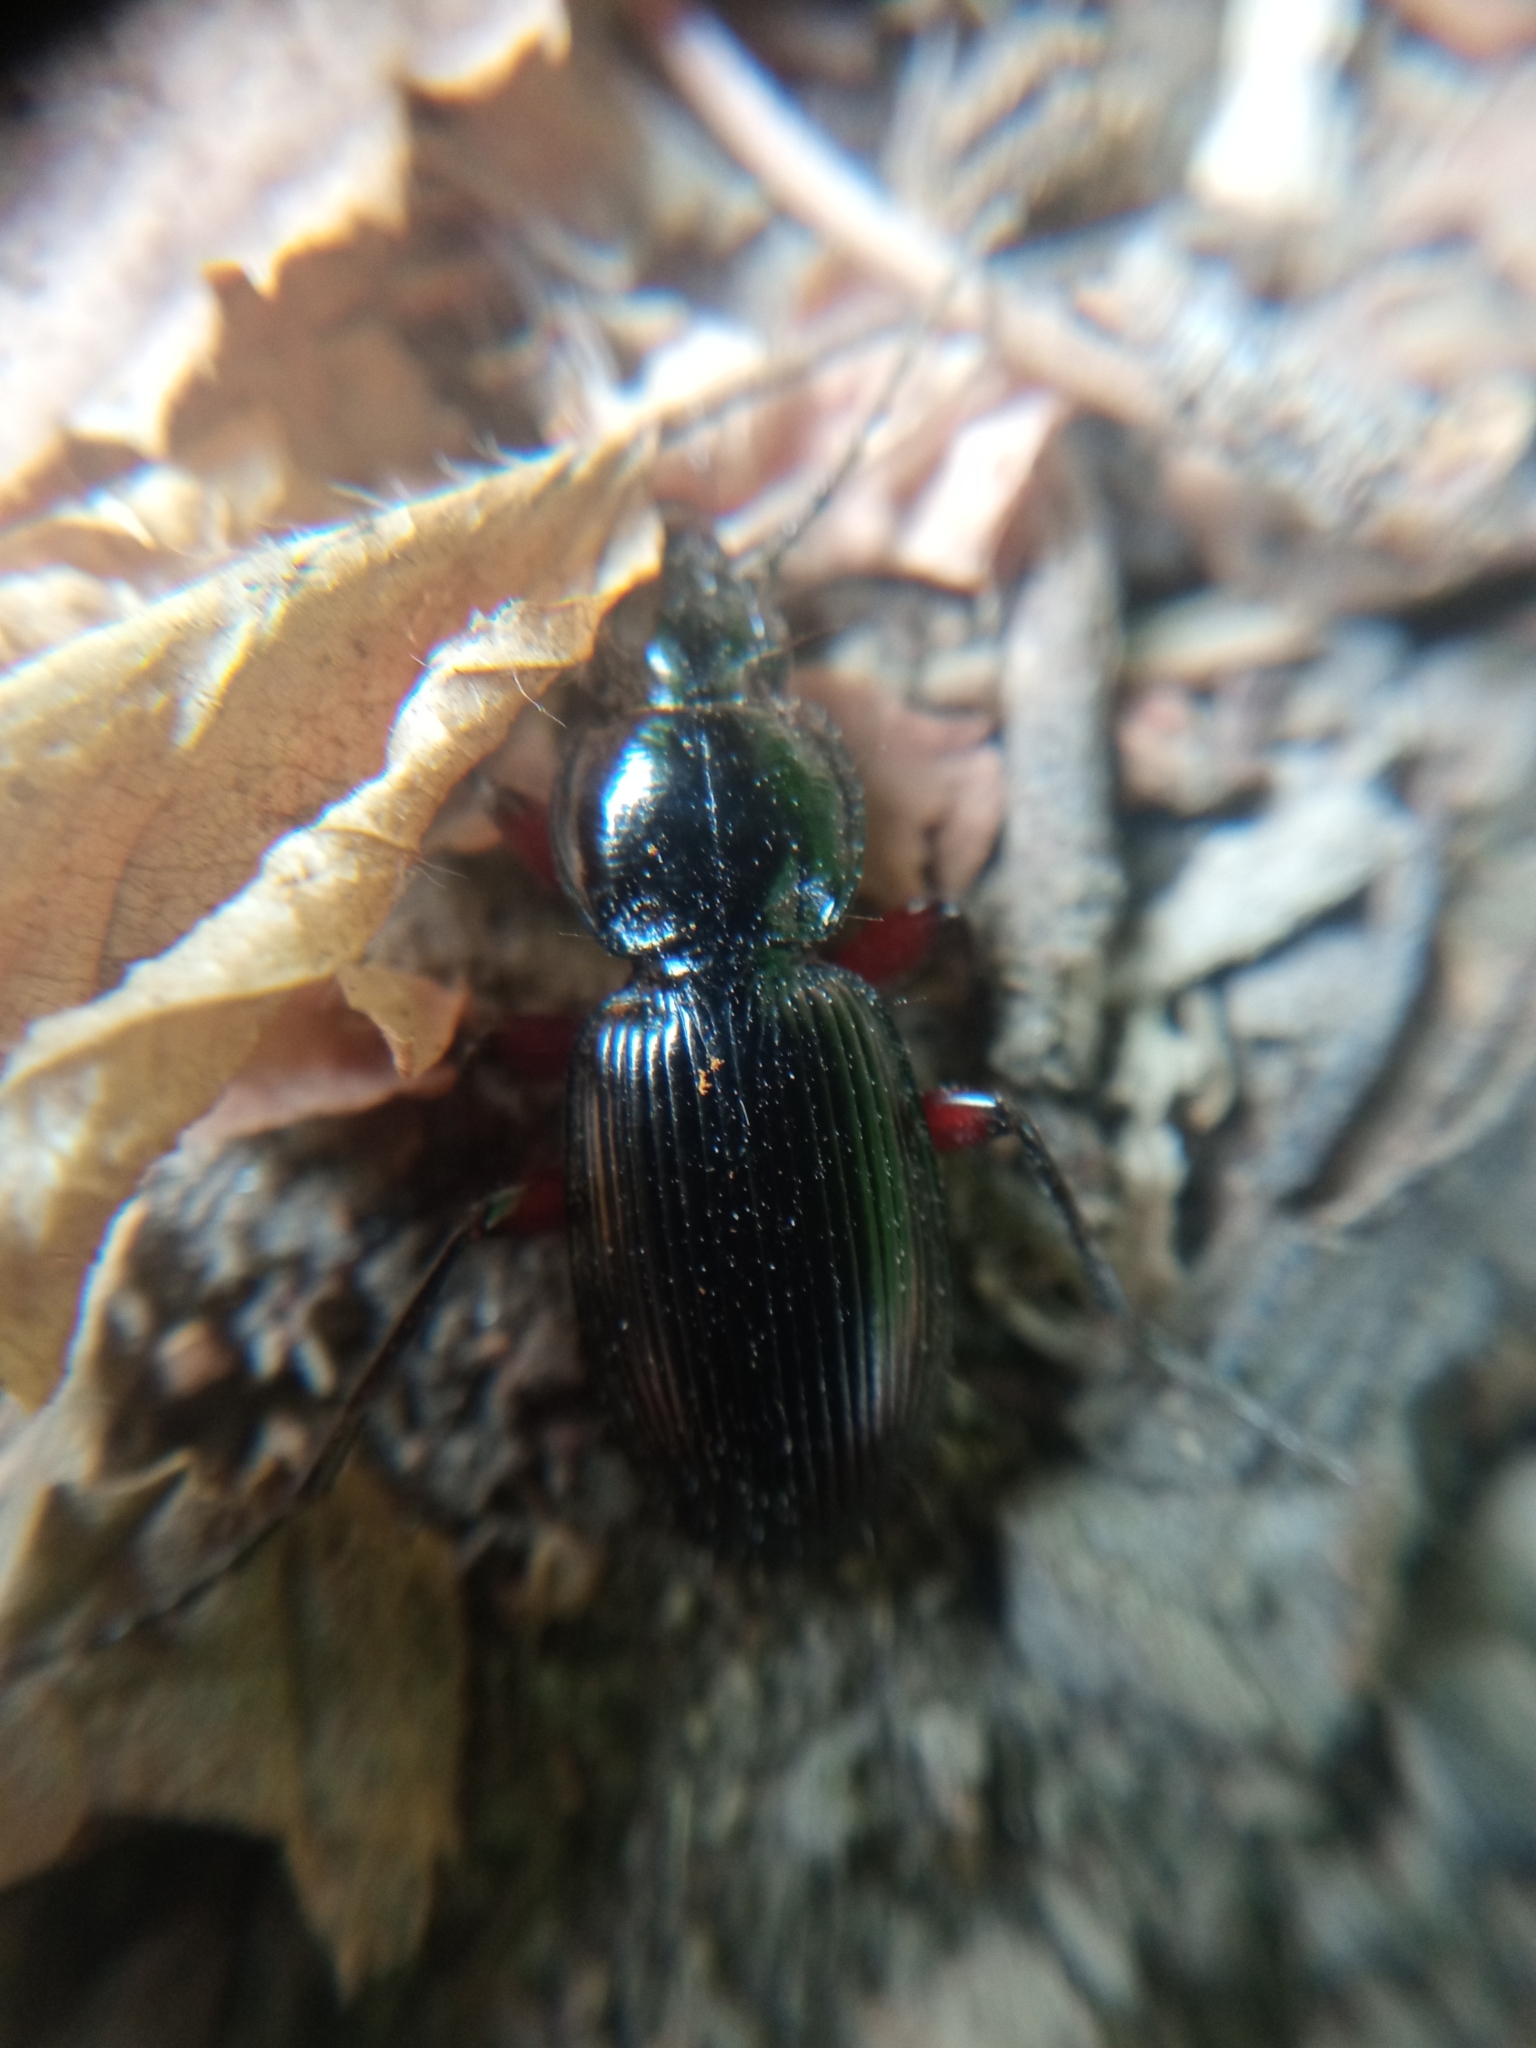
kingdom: Animalia
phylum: Arthropoda
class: Insecta
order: Coleoptera
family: Carabidae
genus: Pterostichus
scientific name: Pterostichus madidus
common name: Black clock
